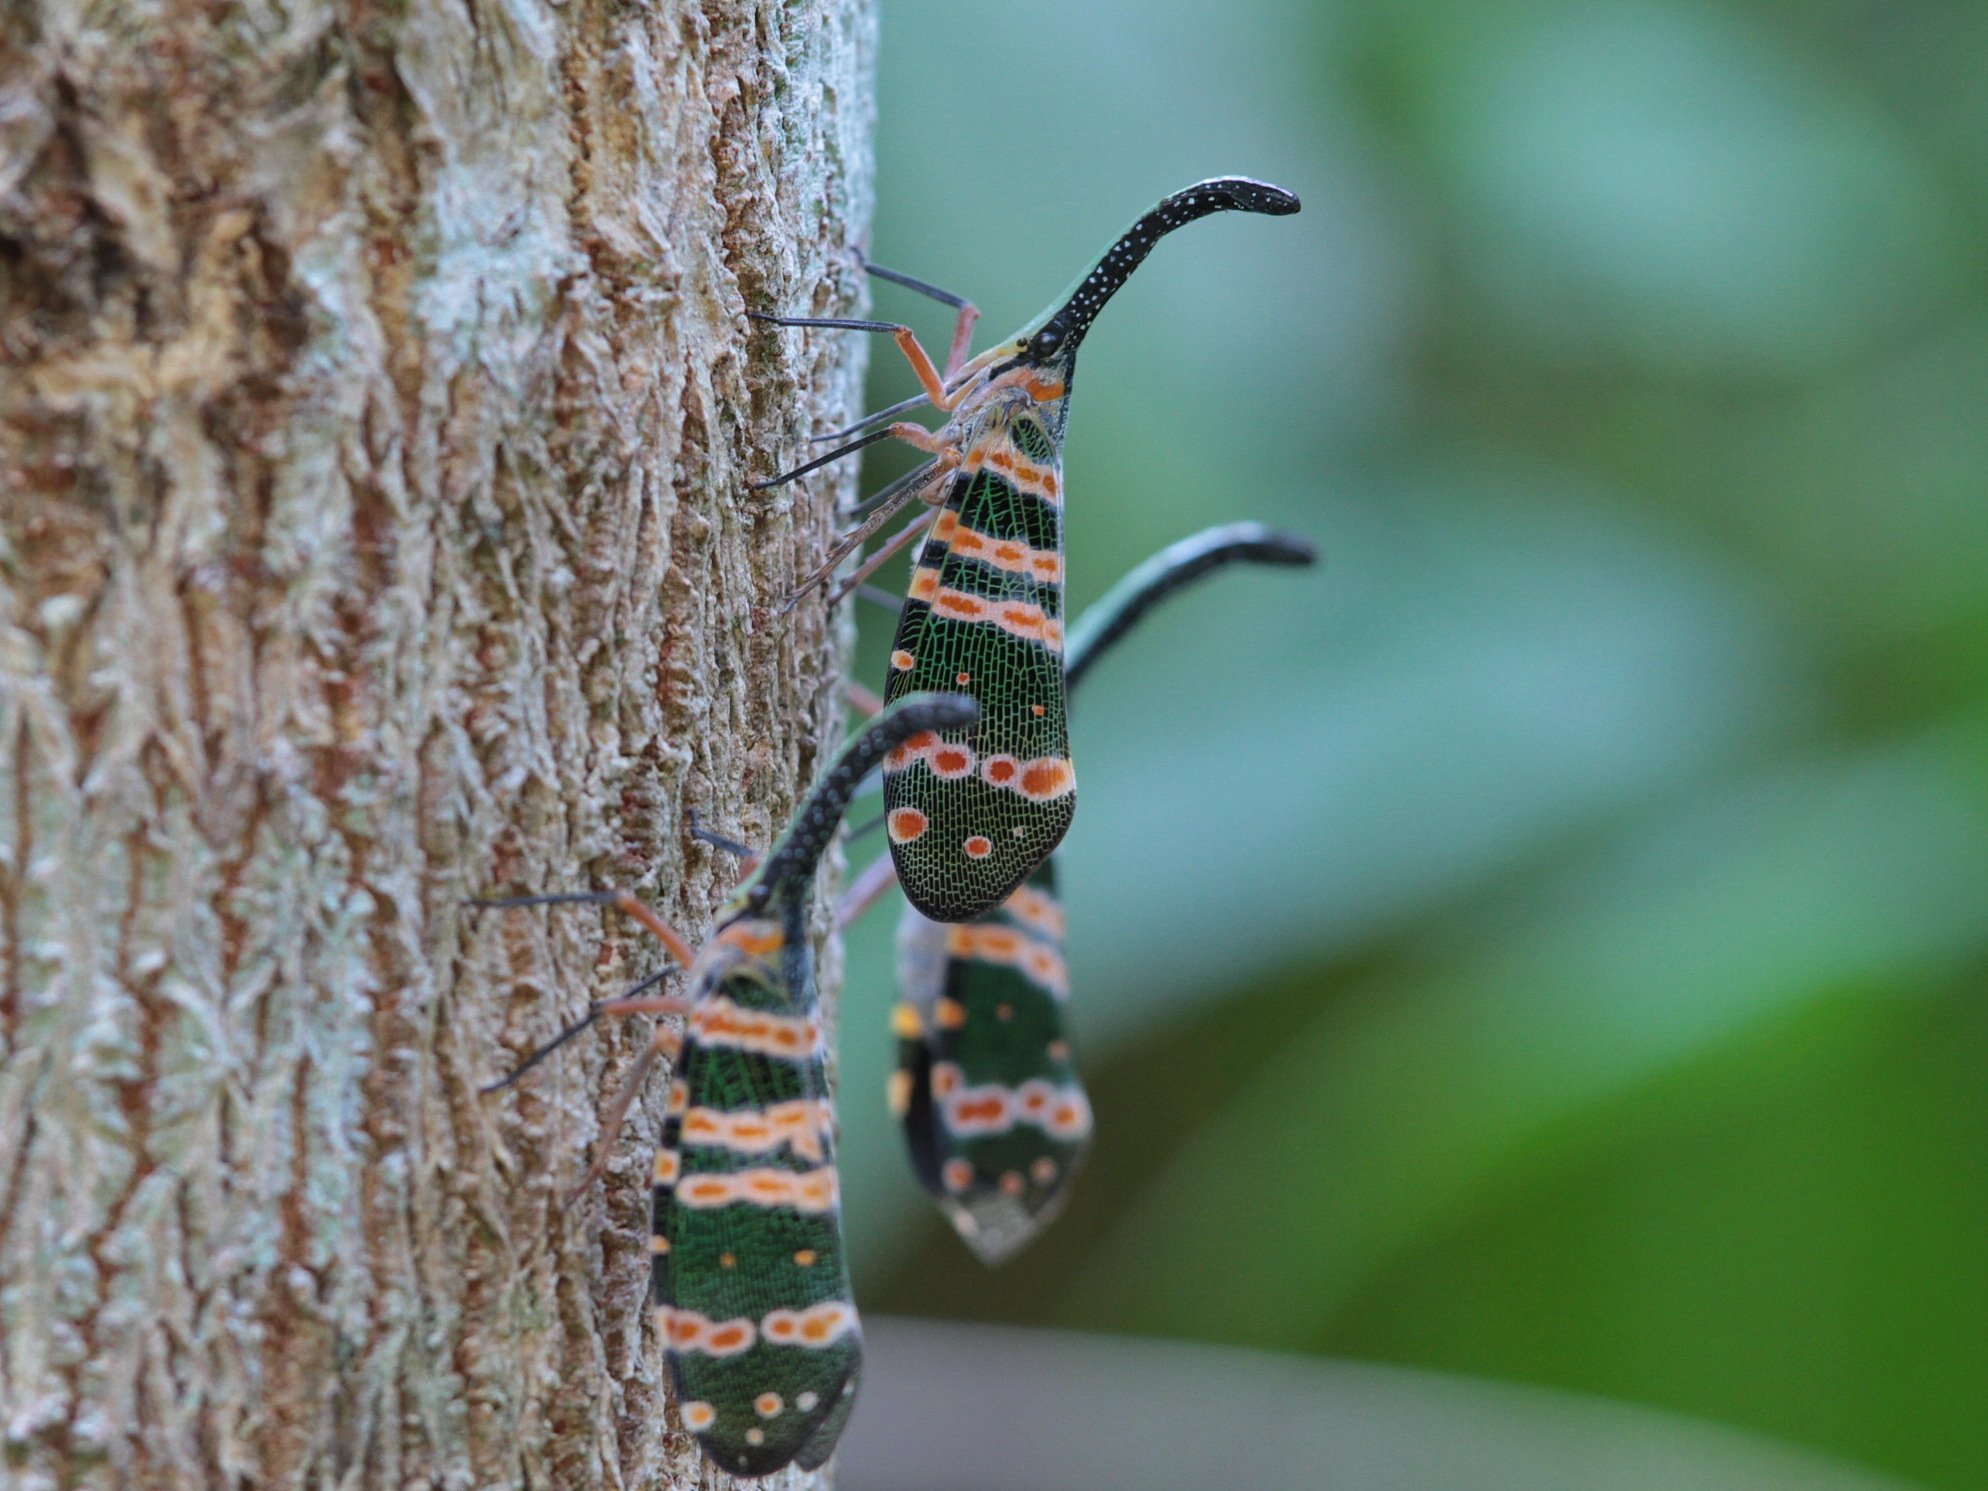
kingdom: Animalia
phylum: Arthropoda
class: Insecta
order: Hemiptera
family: Fulgoridae
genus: Pyrops
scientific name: Pyrops spinolae
